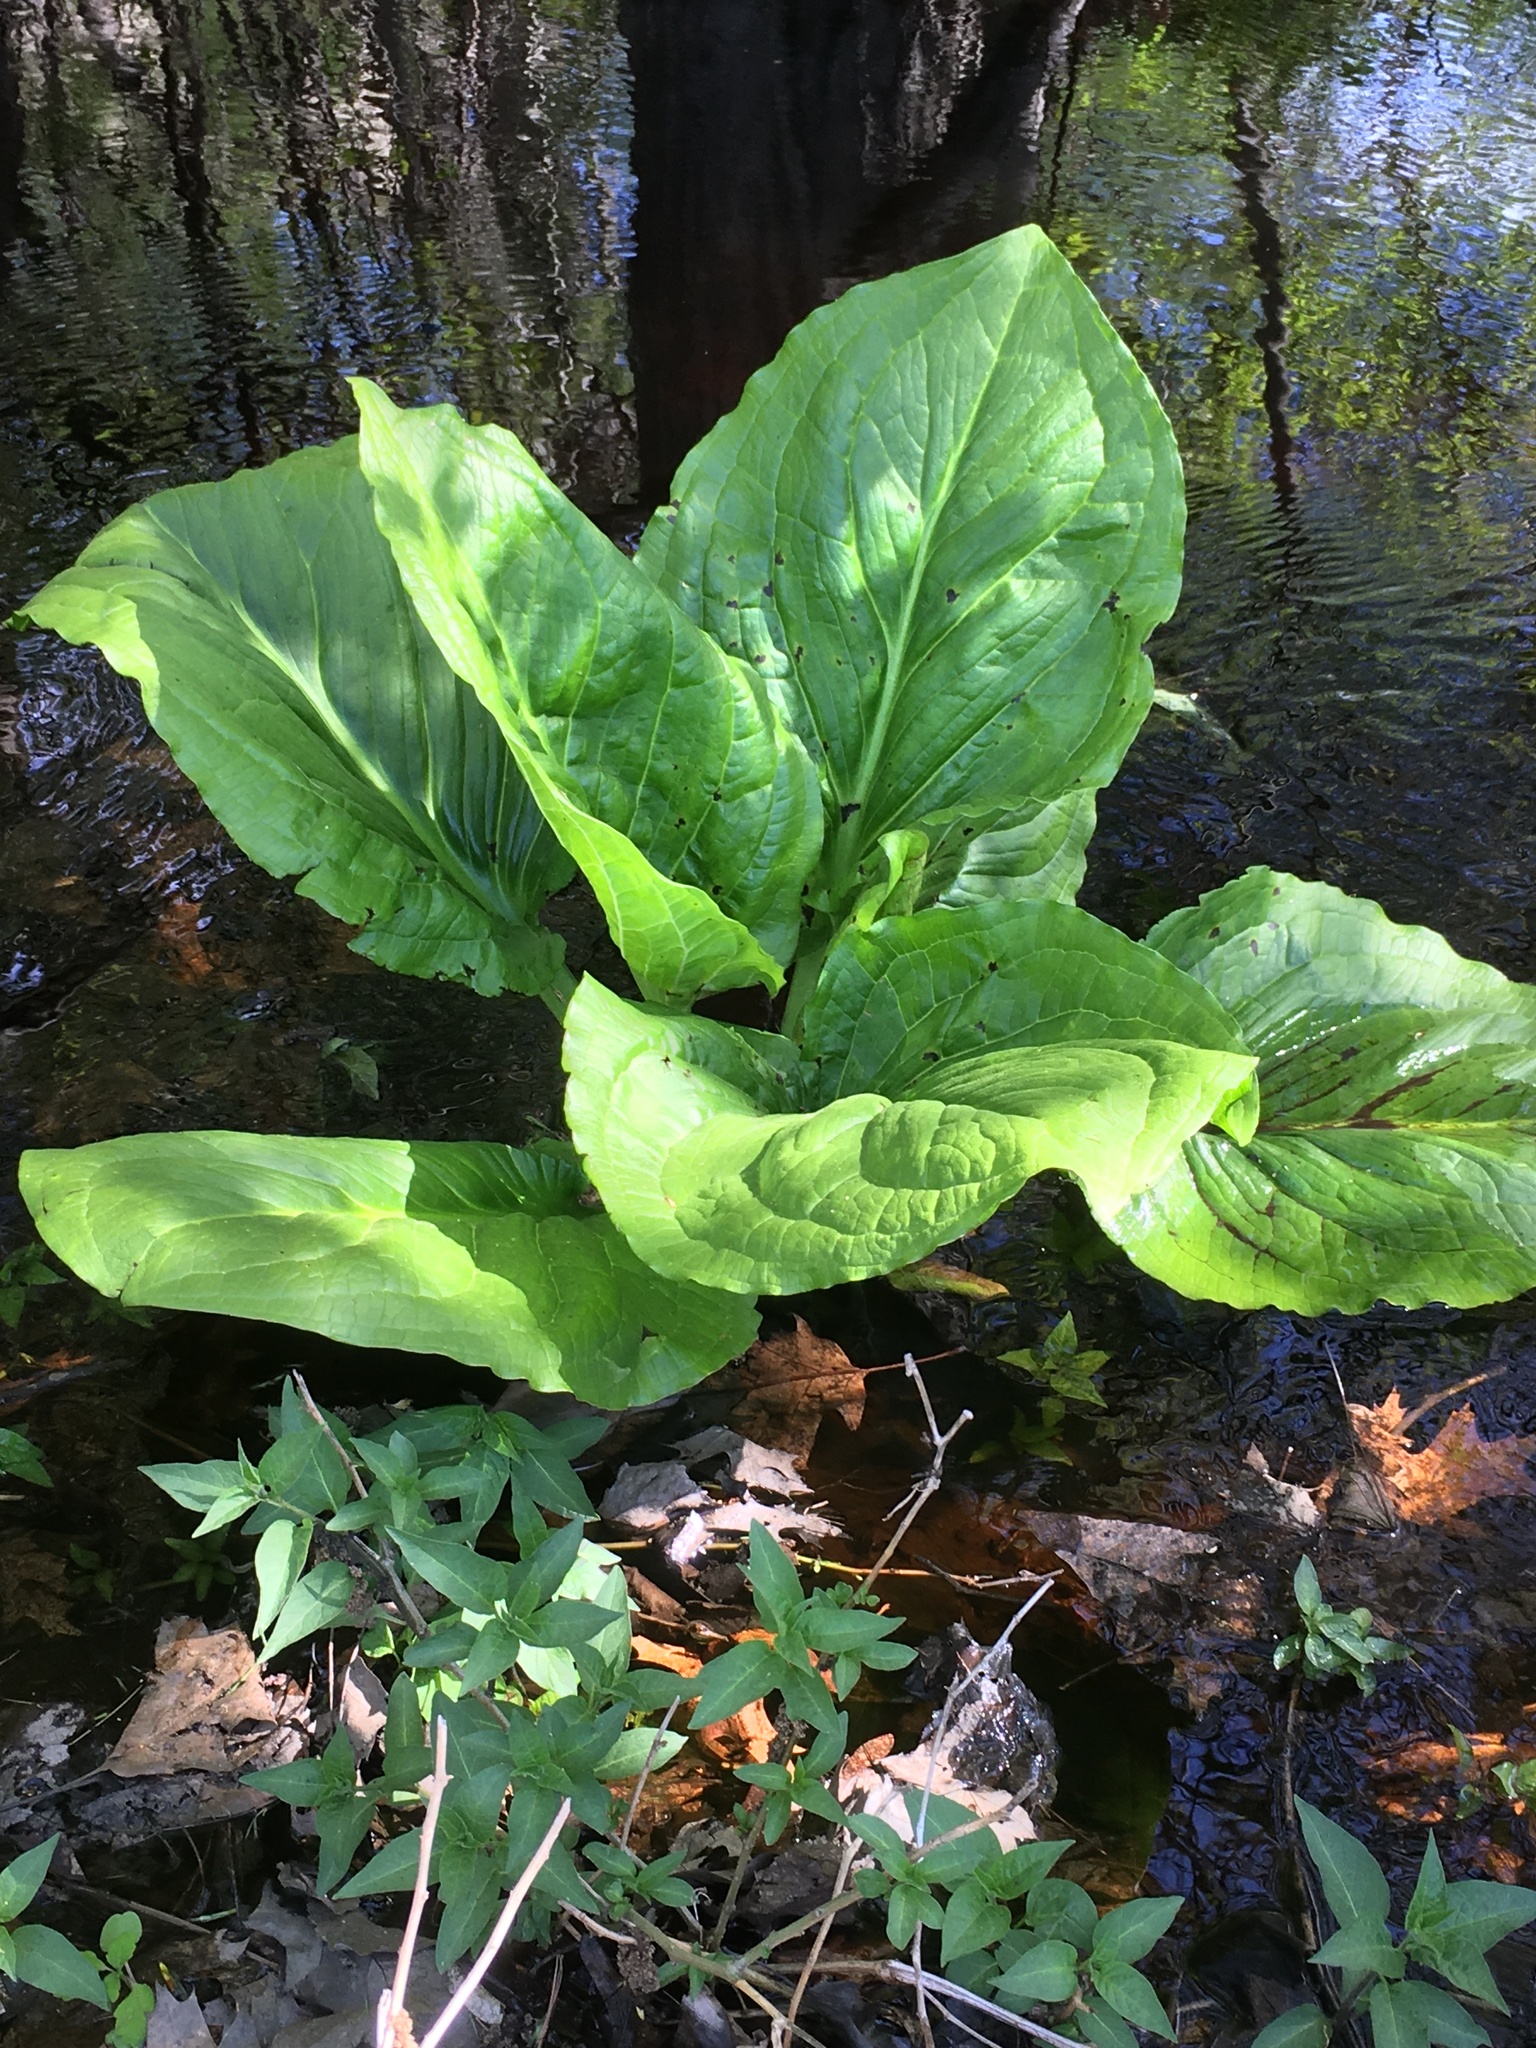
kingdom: Plantae
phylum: Tracheophyta
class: Liliopsida
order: Alismatales
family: Araceae
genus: Symplocarpus
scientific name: Symplocarpus foetidus
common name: Eastern skunk cabbage
